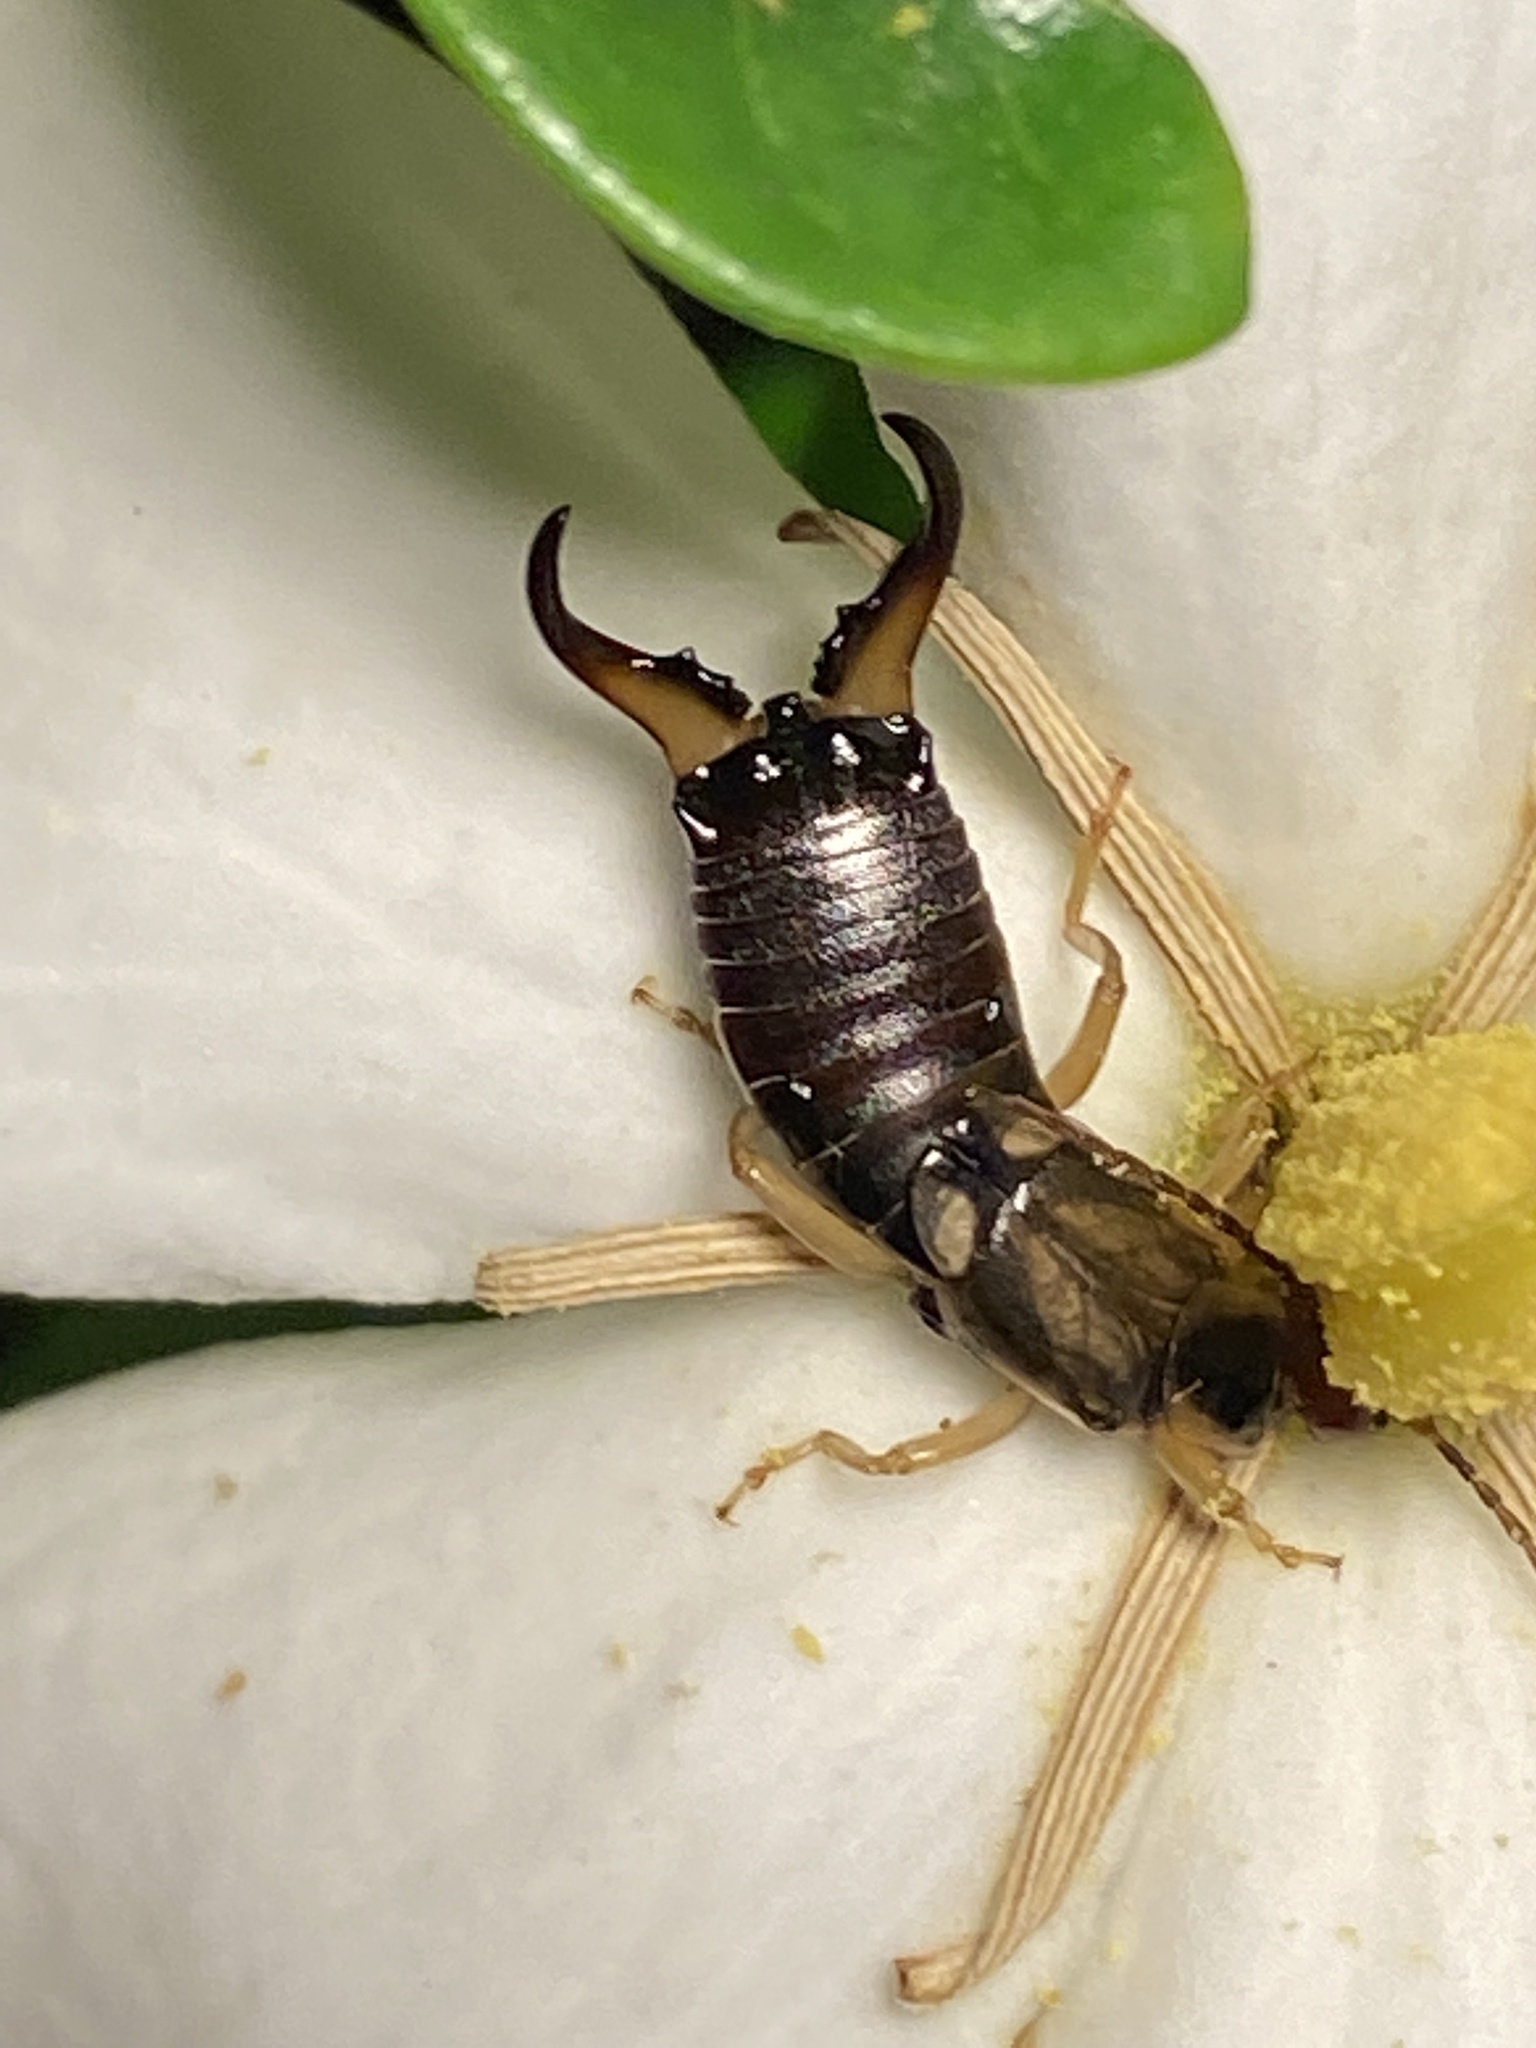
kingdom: Animalia
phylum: Arthropoda
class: Insecta
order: Dermaptera
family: Forficulidae
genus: Forficula
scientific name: Forficula
